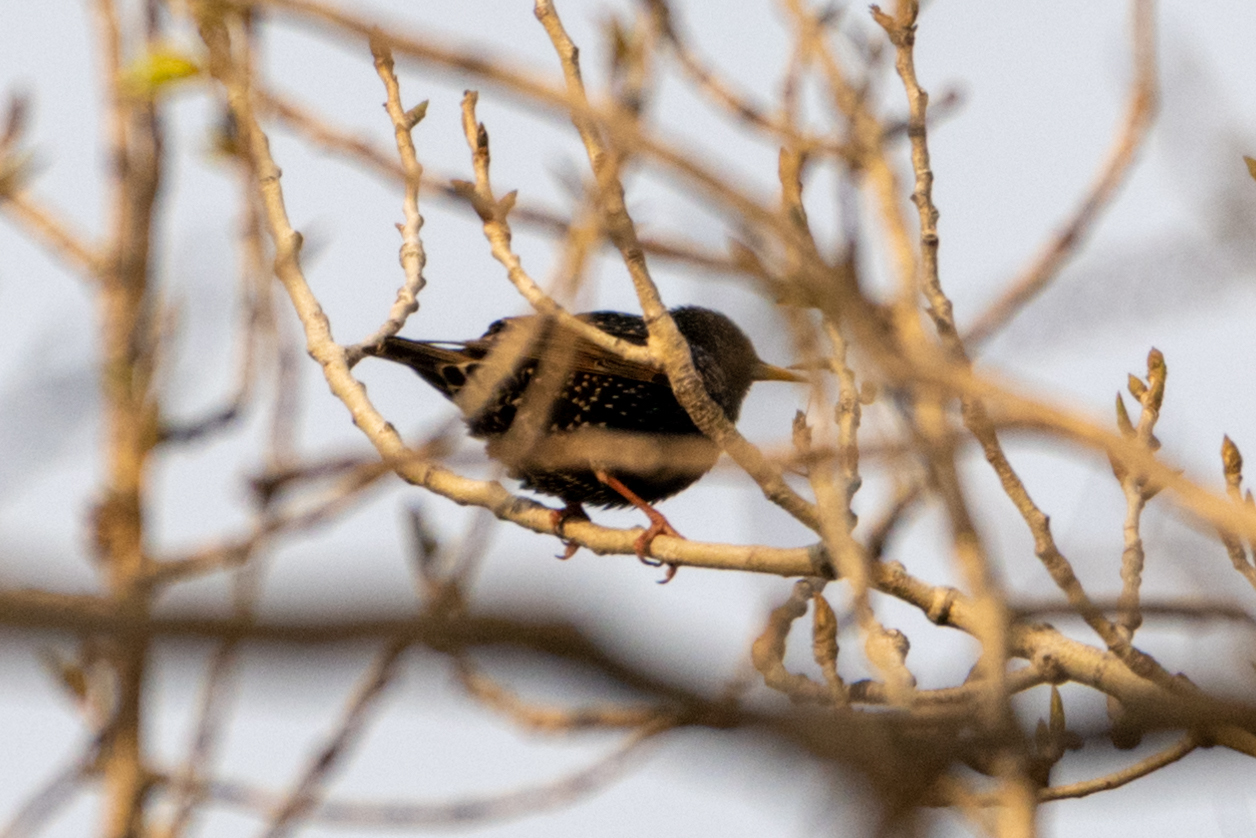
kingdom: Animalia
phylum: Chordata
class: Aves
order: Passeriformes
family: Sturnidae
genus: Sturnus
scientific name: Sturnus vulgaris
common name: Common starling
